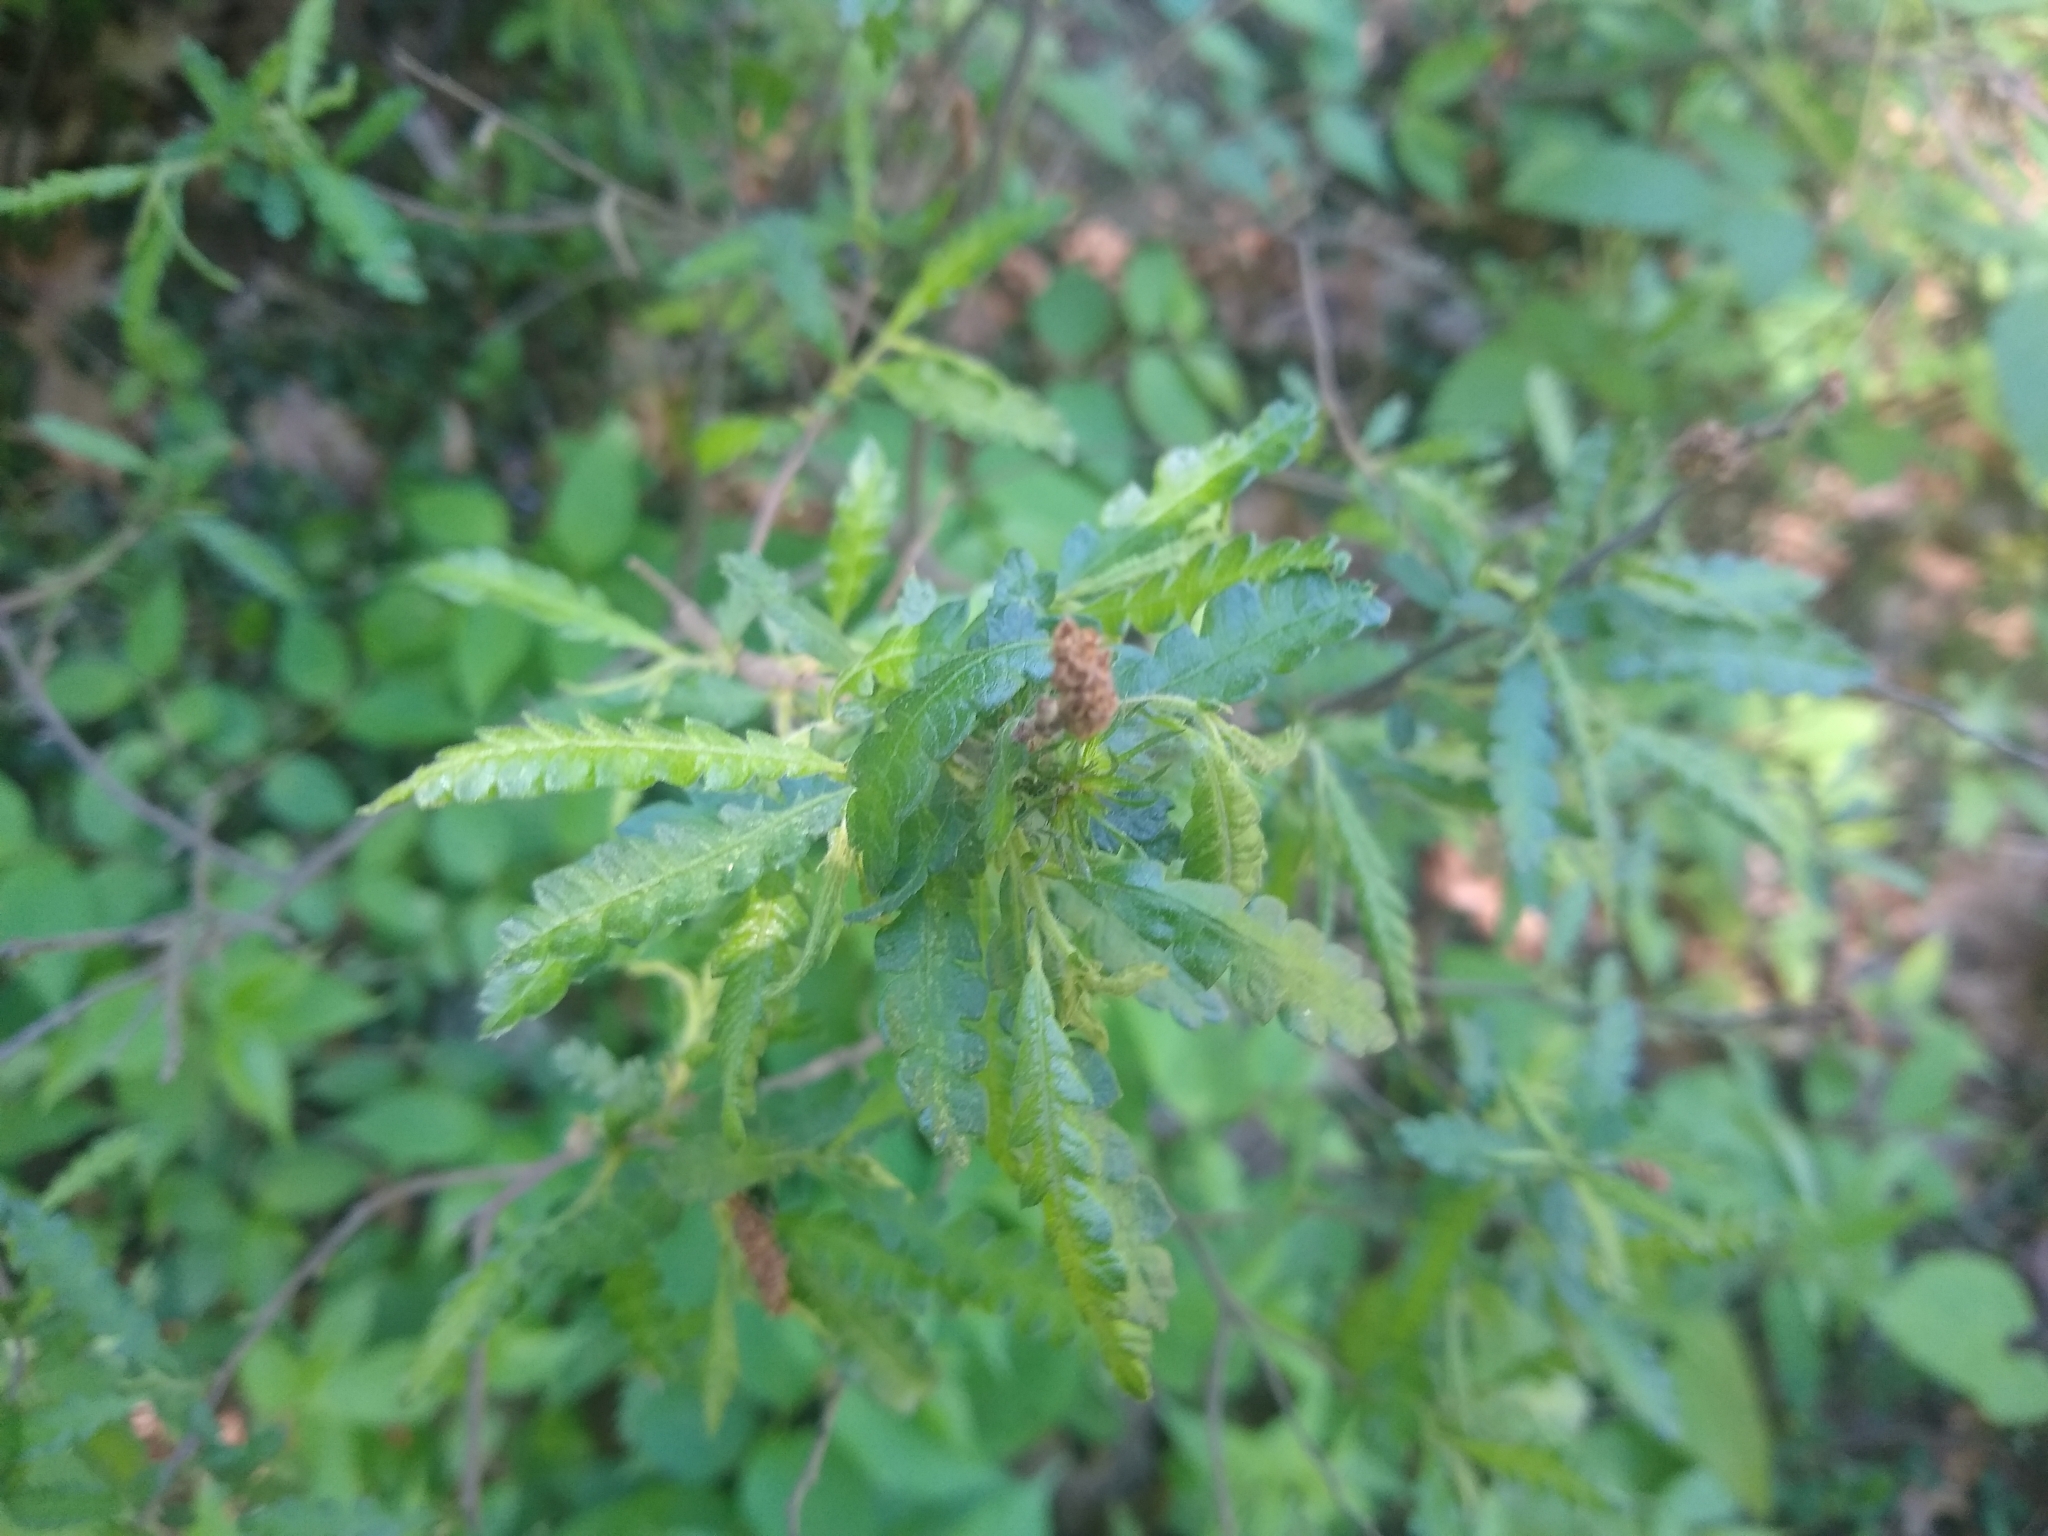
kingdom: Plantae
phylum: Tracheophyta
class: Magnoliopsida
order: Fagales
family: Myricaceae
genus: Comptonia
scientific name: Comptonia peregrina
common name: Sweet-fern
